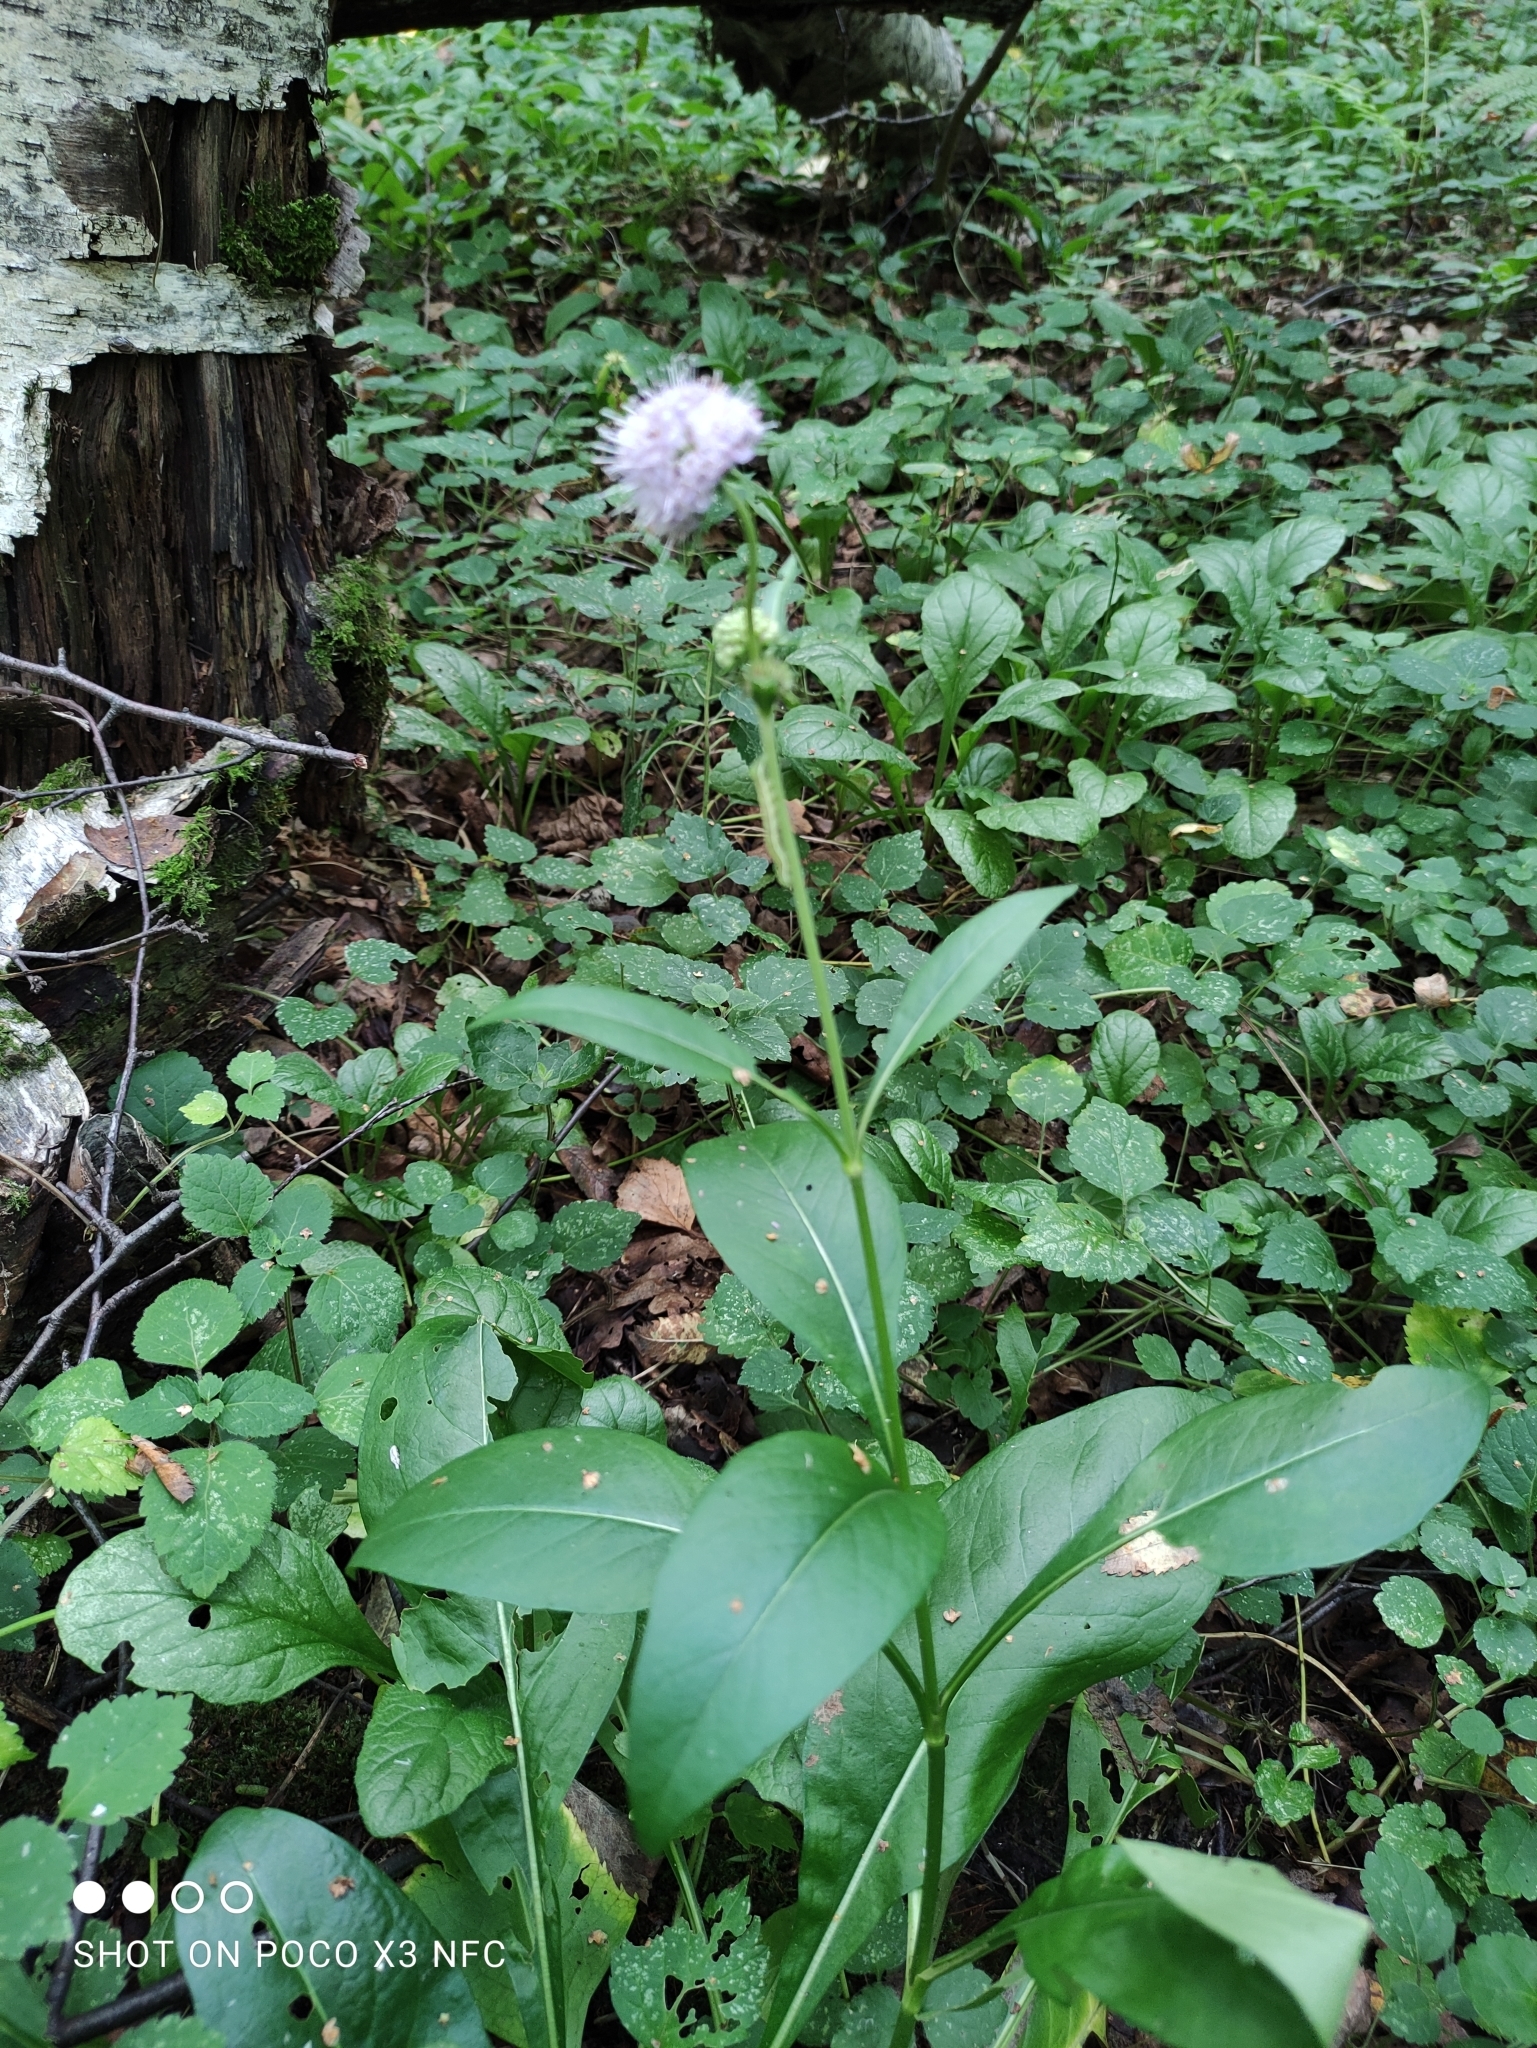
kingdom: Plantae
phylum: Tracheophyta
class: Magnoliopsida
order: Dipsacales
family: Caprifoliaceae
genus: Succisa
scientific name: Succisa pratensis
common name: Devil's-bit
